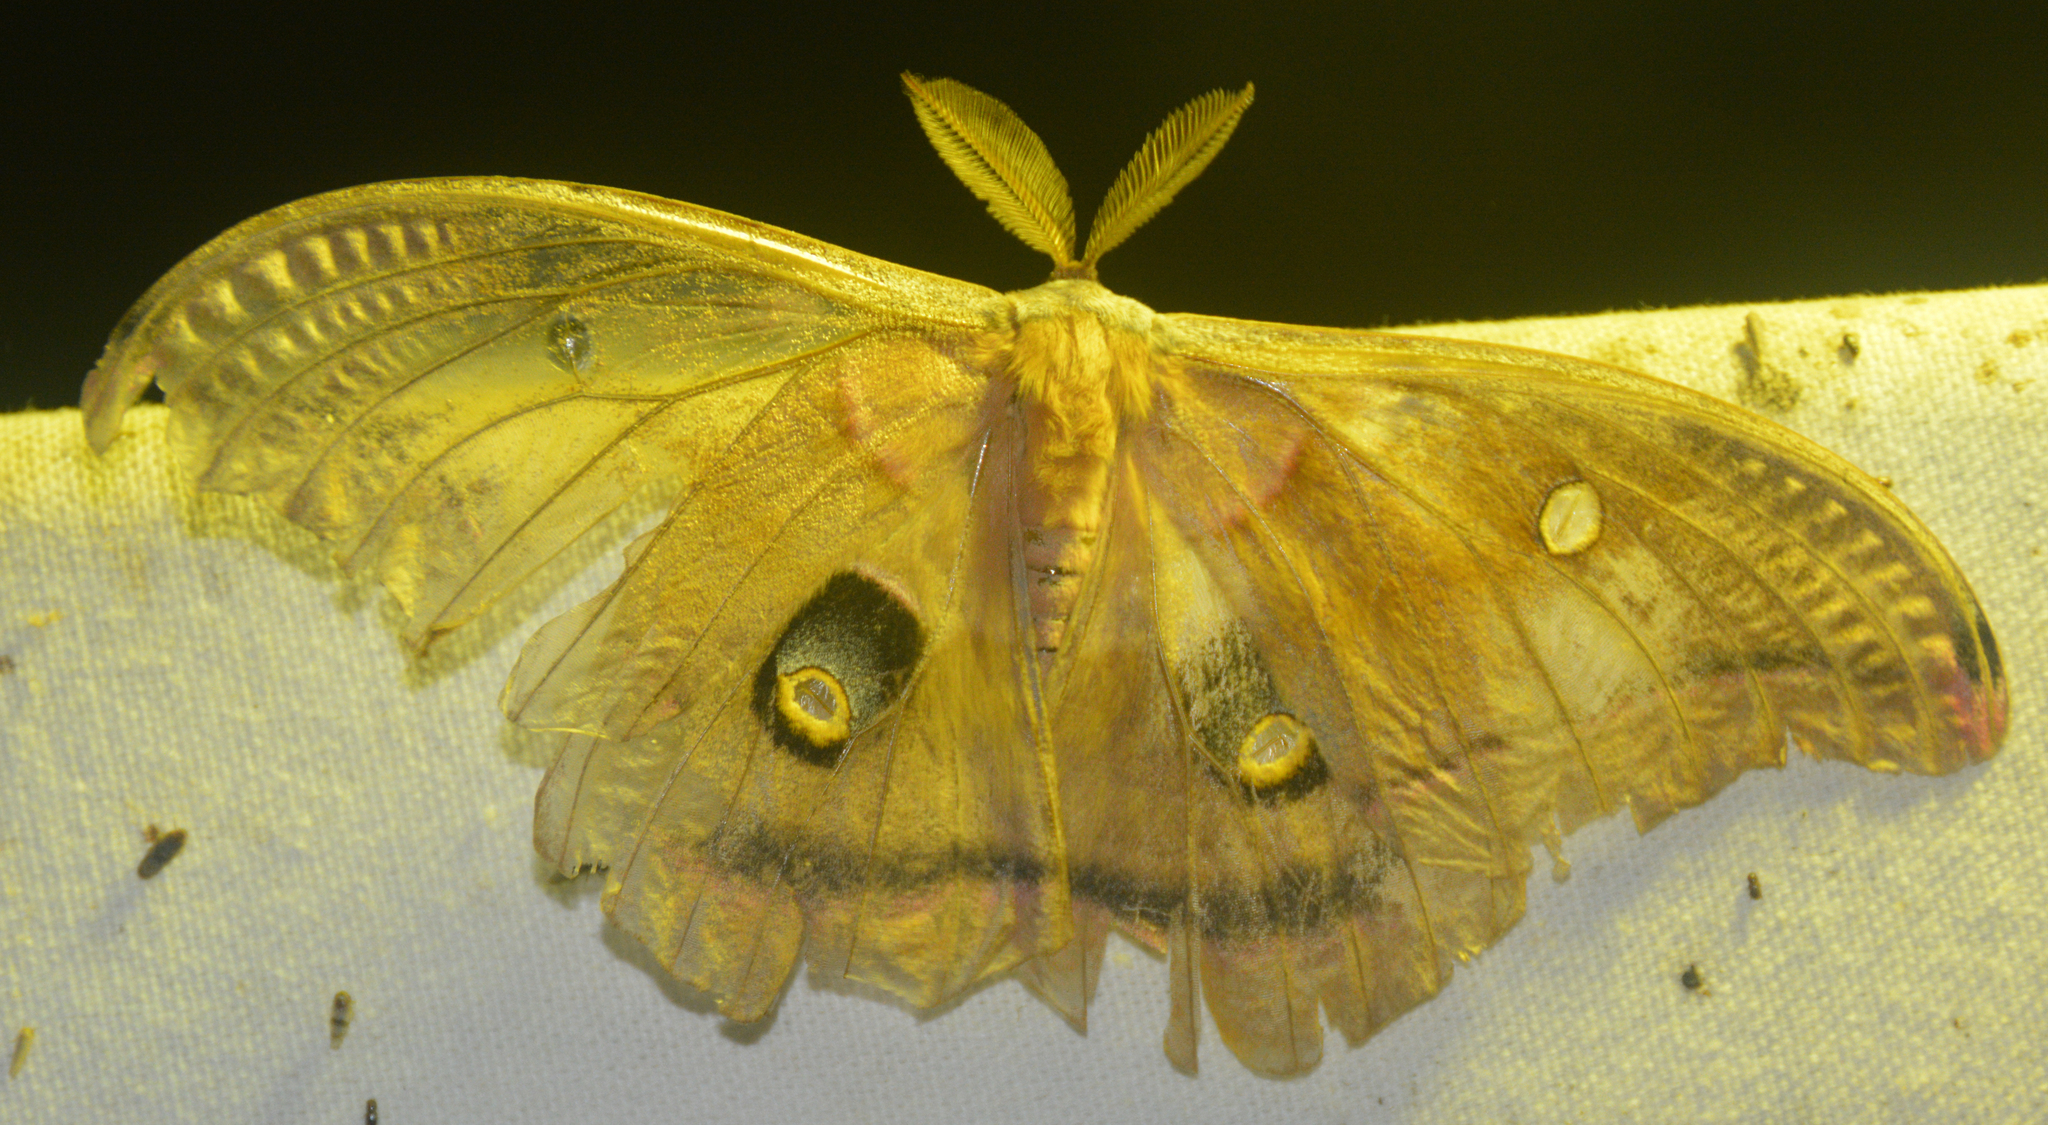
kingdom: Animalia
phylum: Arthropoda
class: Insecta
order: Lepidoptera
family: Saturniidae
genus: Antheraea
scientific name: Antheraea polyphemus
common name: Polyphemus moth
